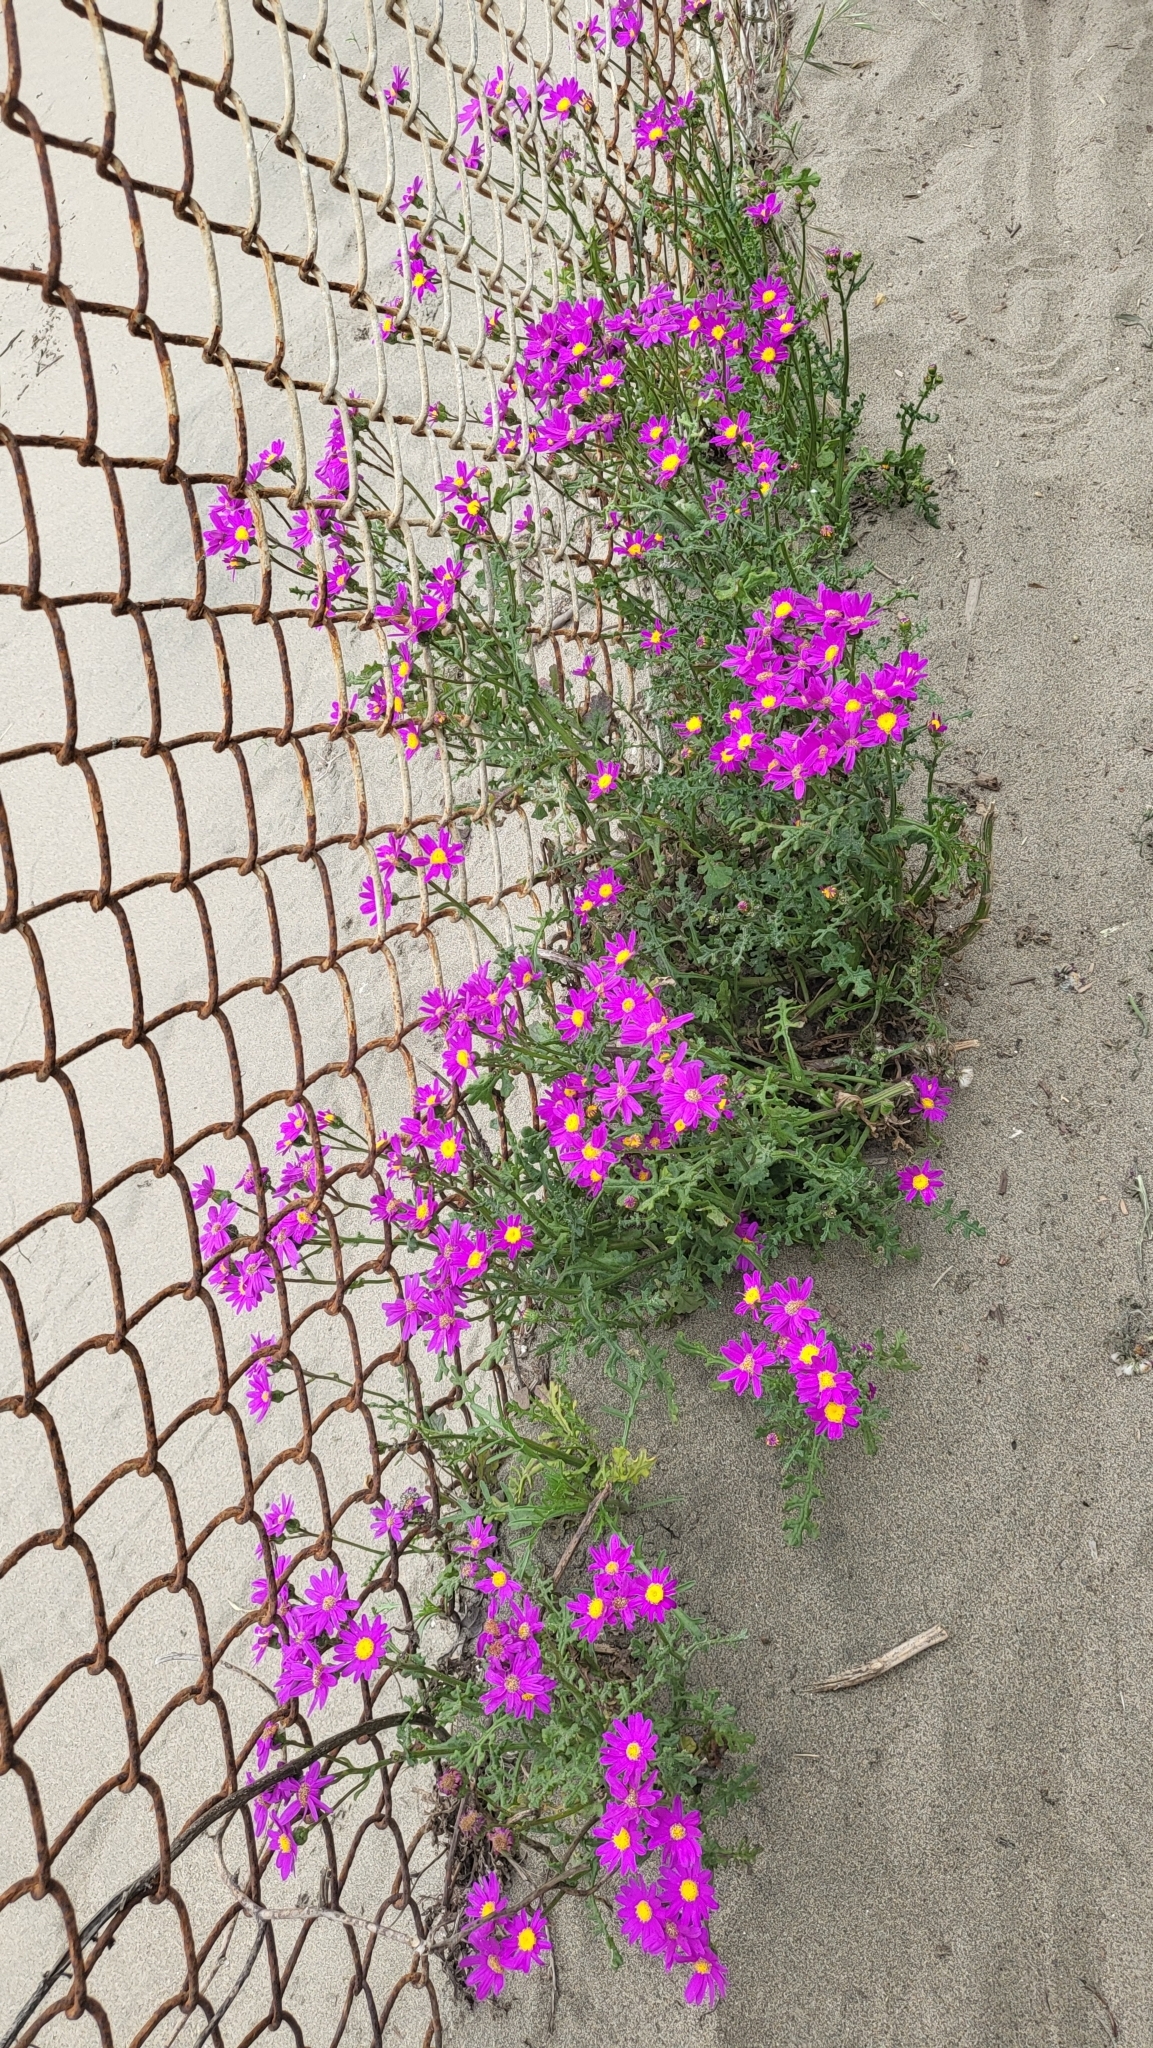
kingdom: Plantae
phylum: Tracheophyta
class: Magnoliopsida
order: Asterales
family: Asteraceae
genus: Senecio
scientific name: Senecio elegans
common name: Purple groundsel
